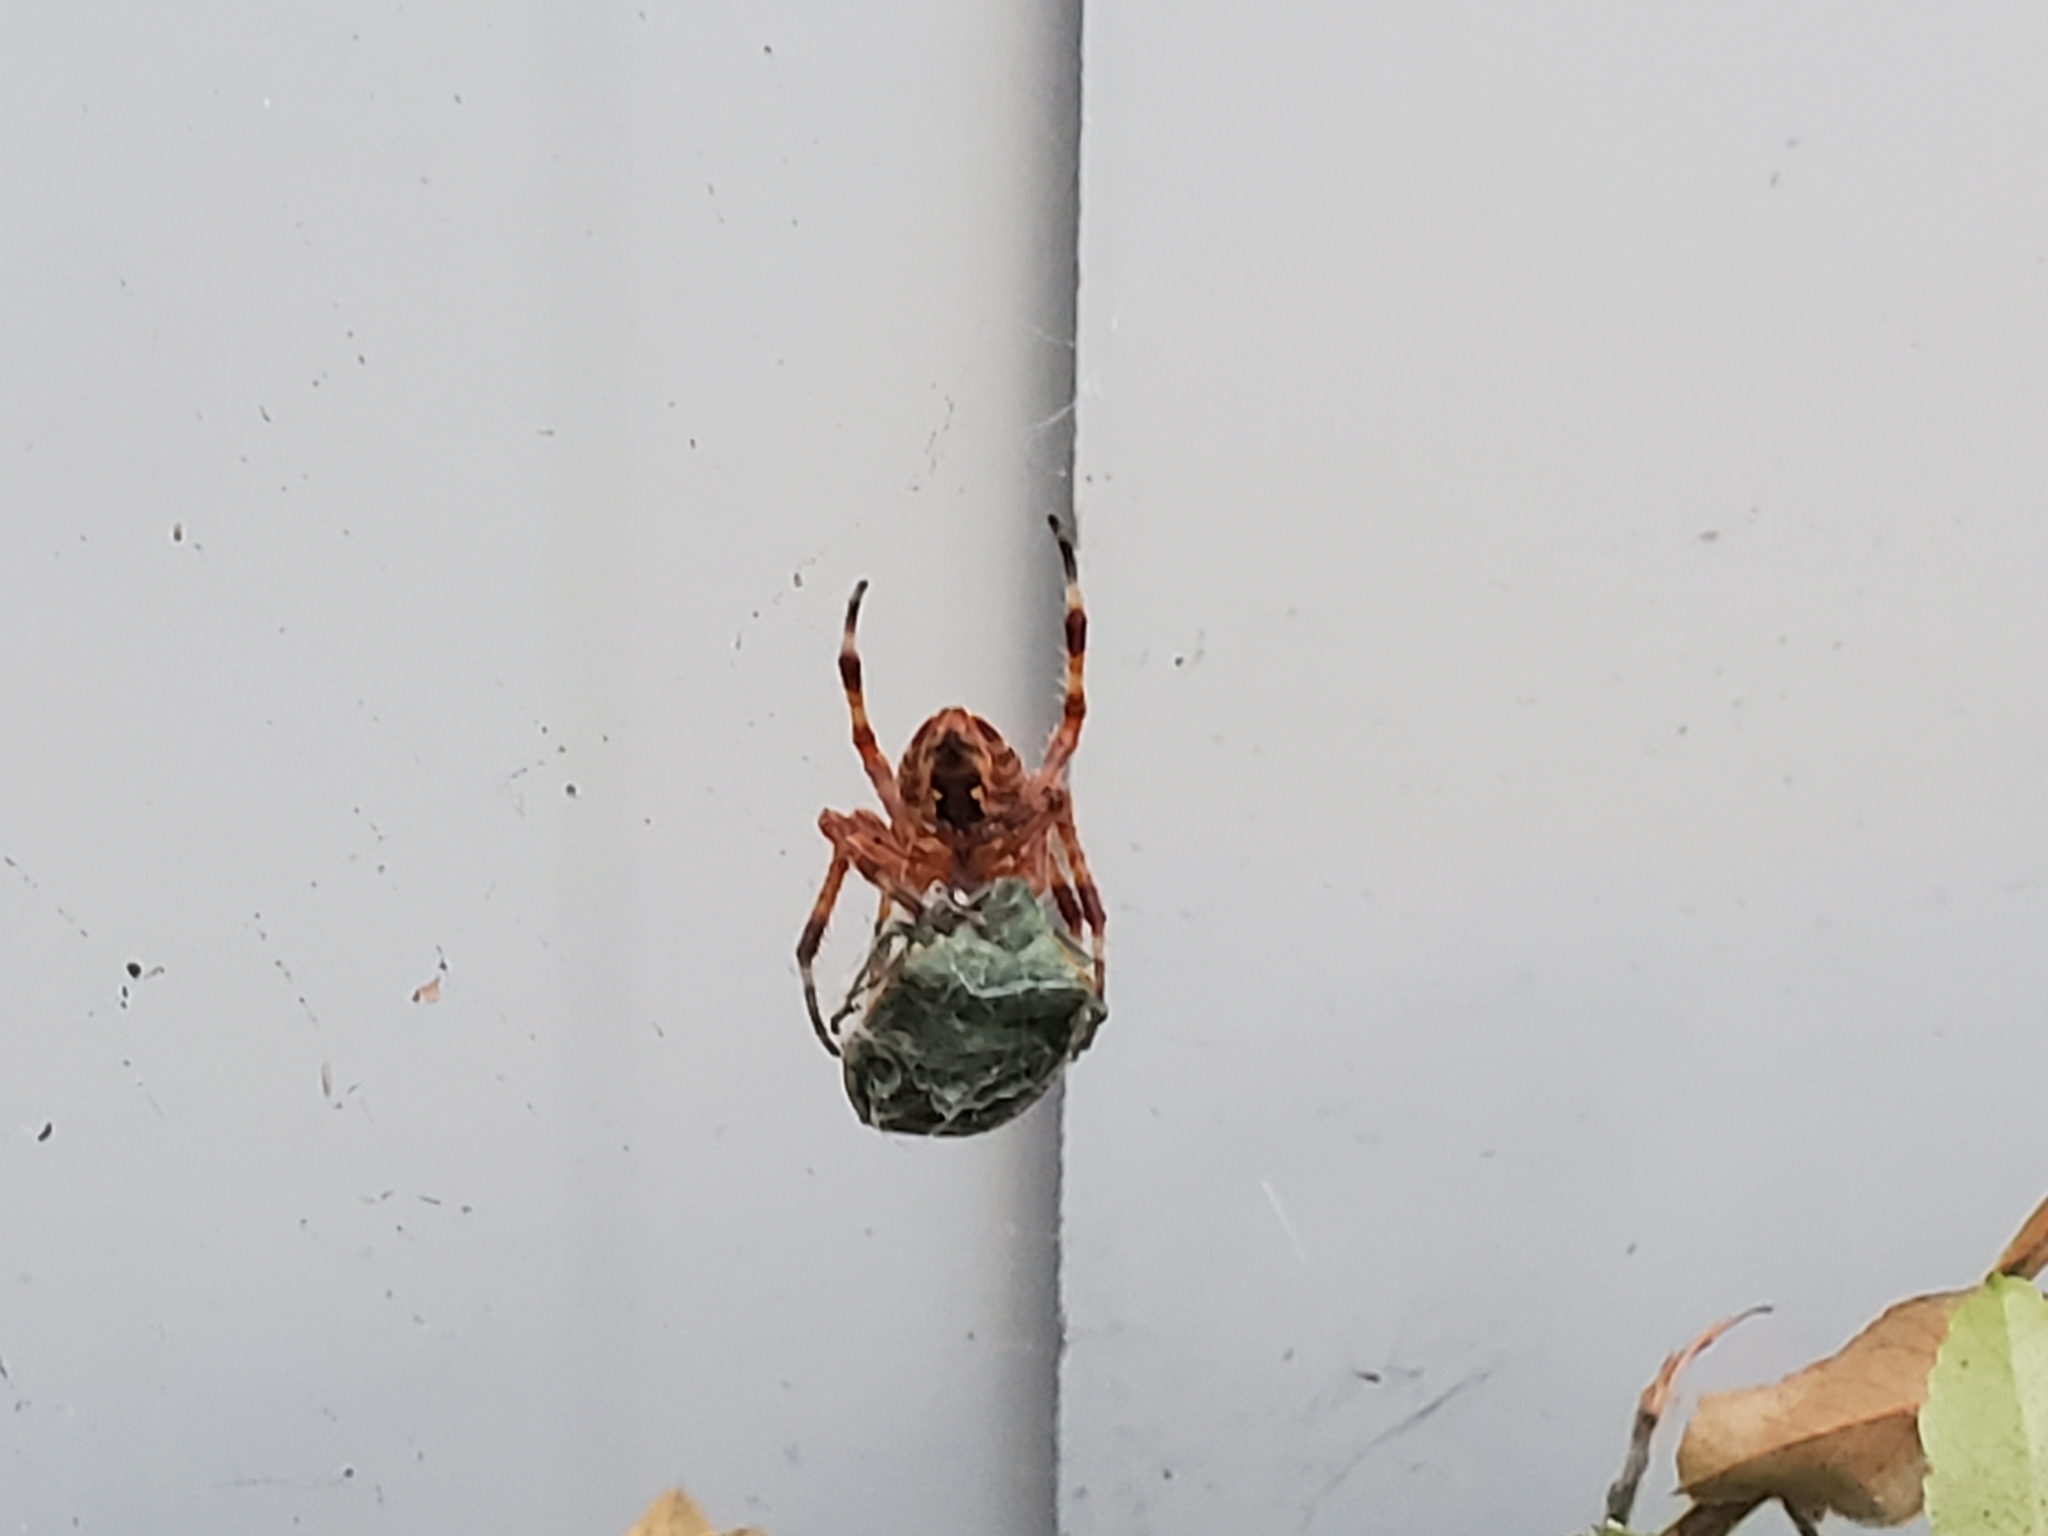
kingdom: Animalia
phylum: Arthropoda
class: Arachnida
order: Araneae
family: Araneidae
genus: Araneus
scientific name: Araneus diadematus
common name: Cross orbweaver
